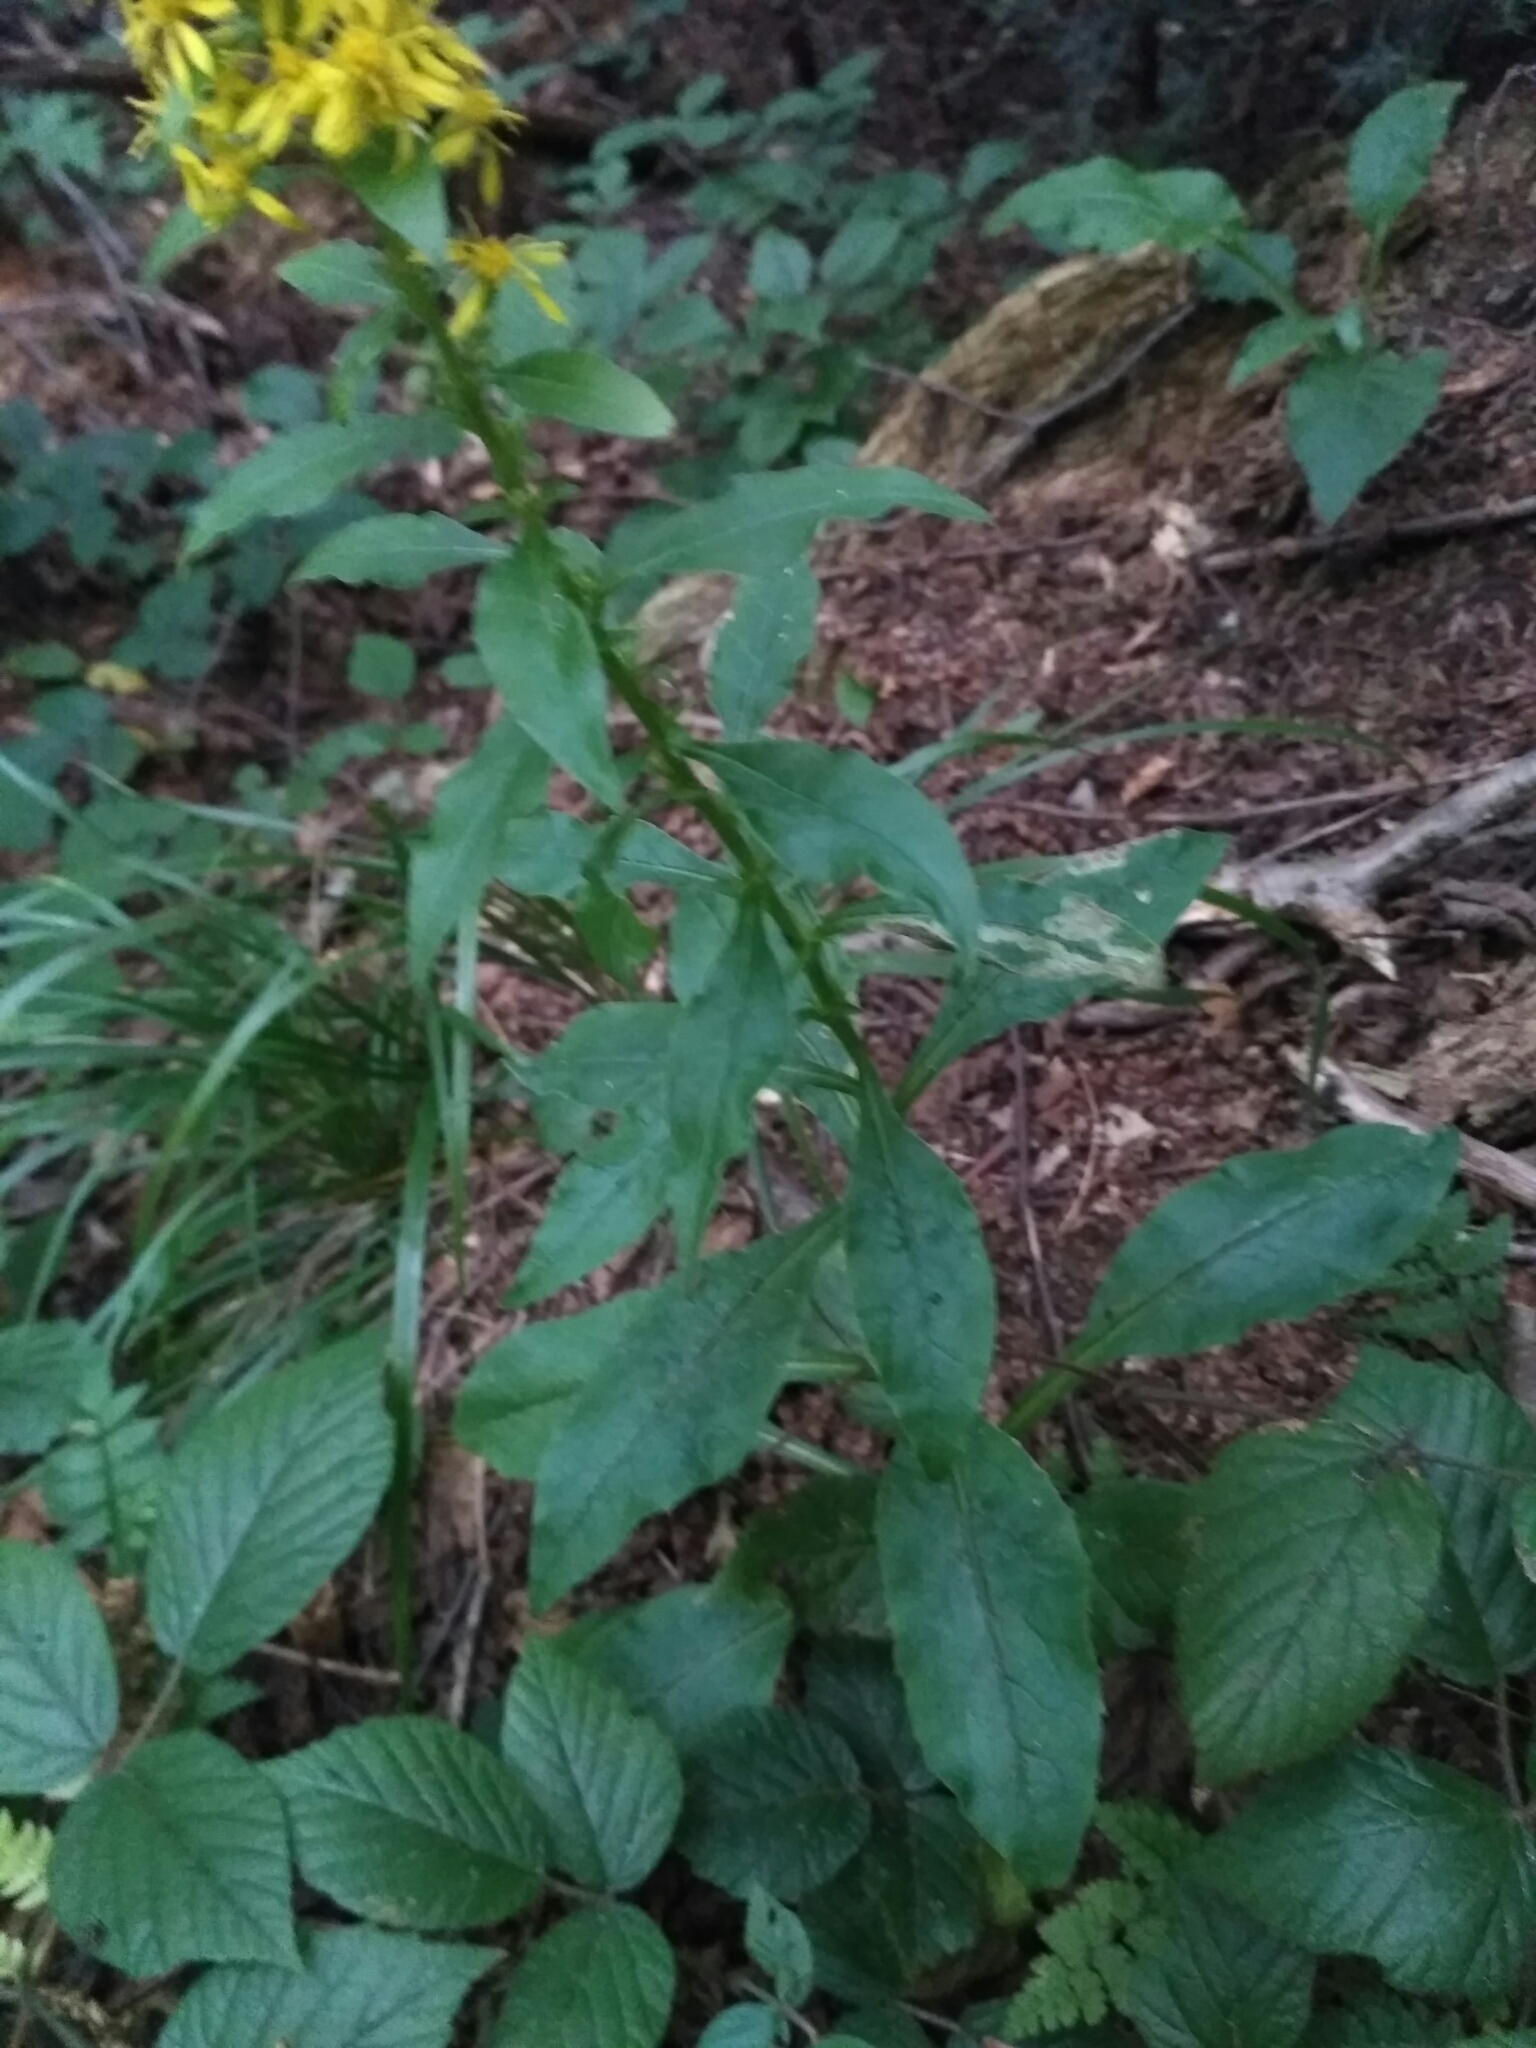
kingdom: Plantae
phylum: Tracheophyta
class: Magnoliopsida
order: Asterales
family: Asteraceae
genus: Solidago
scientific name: Solidago virgaurea
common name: Goldenrod
